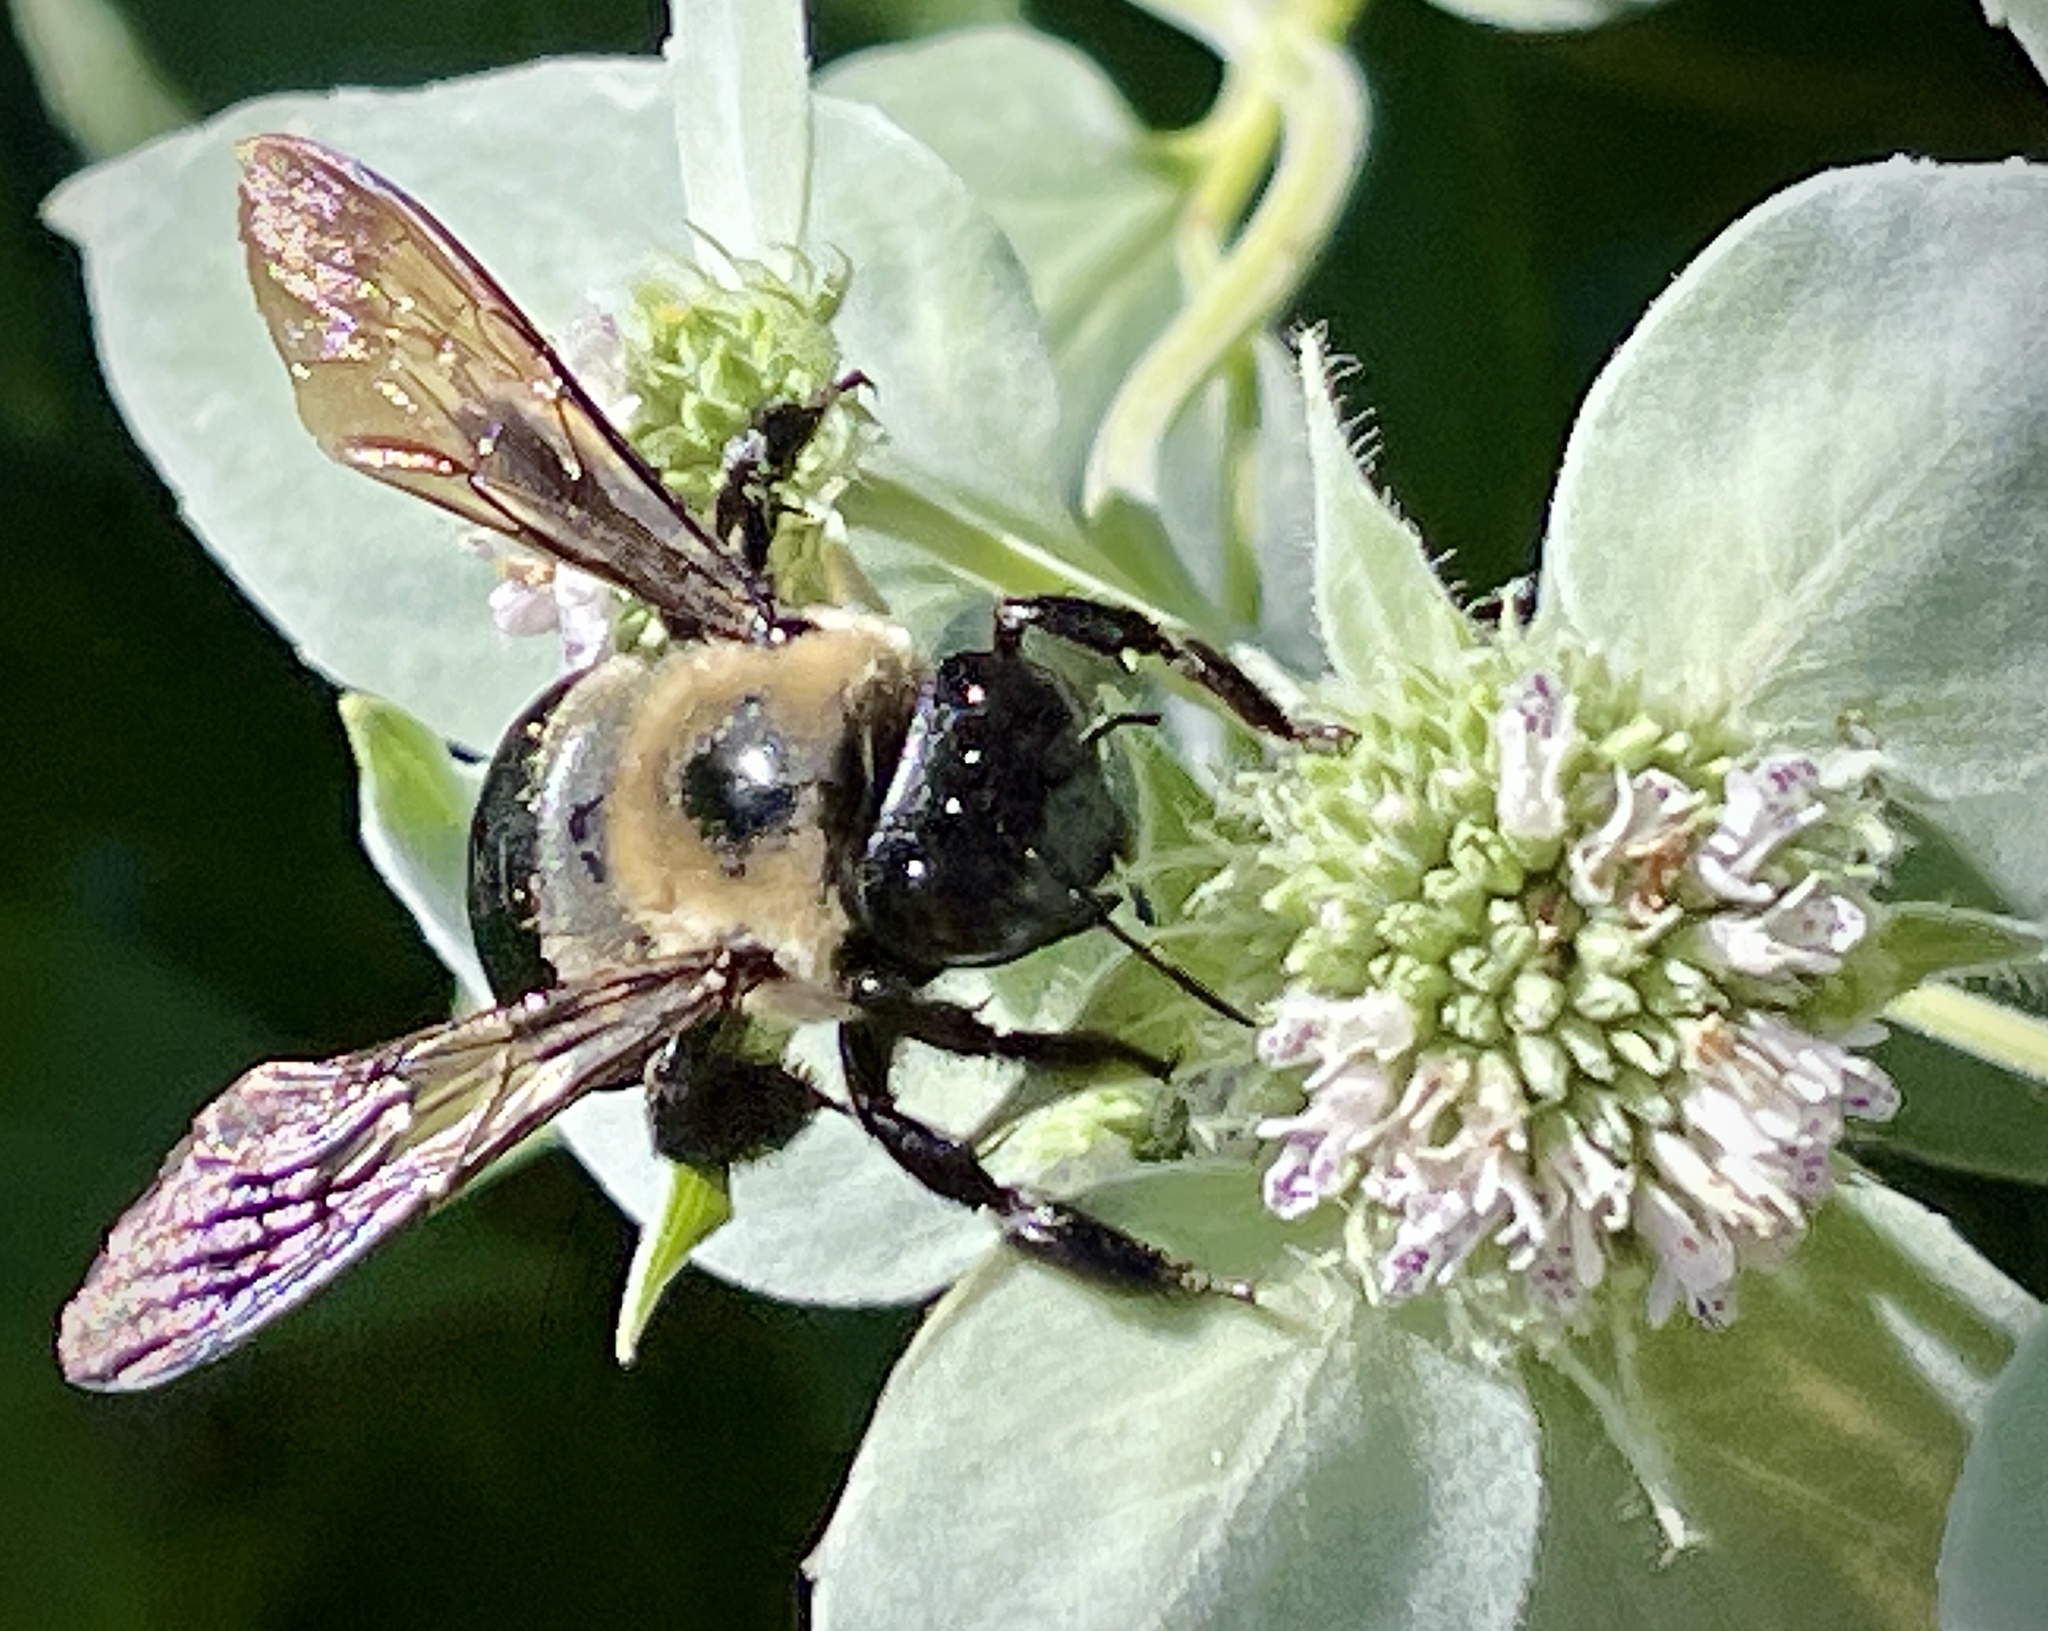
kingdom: Animalia
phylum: Arthropoda
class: Insecta
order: Hymenoptera
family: Apidae
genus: Xylocopa
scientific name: Xylocopa virginica
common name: Carpenter bee
